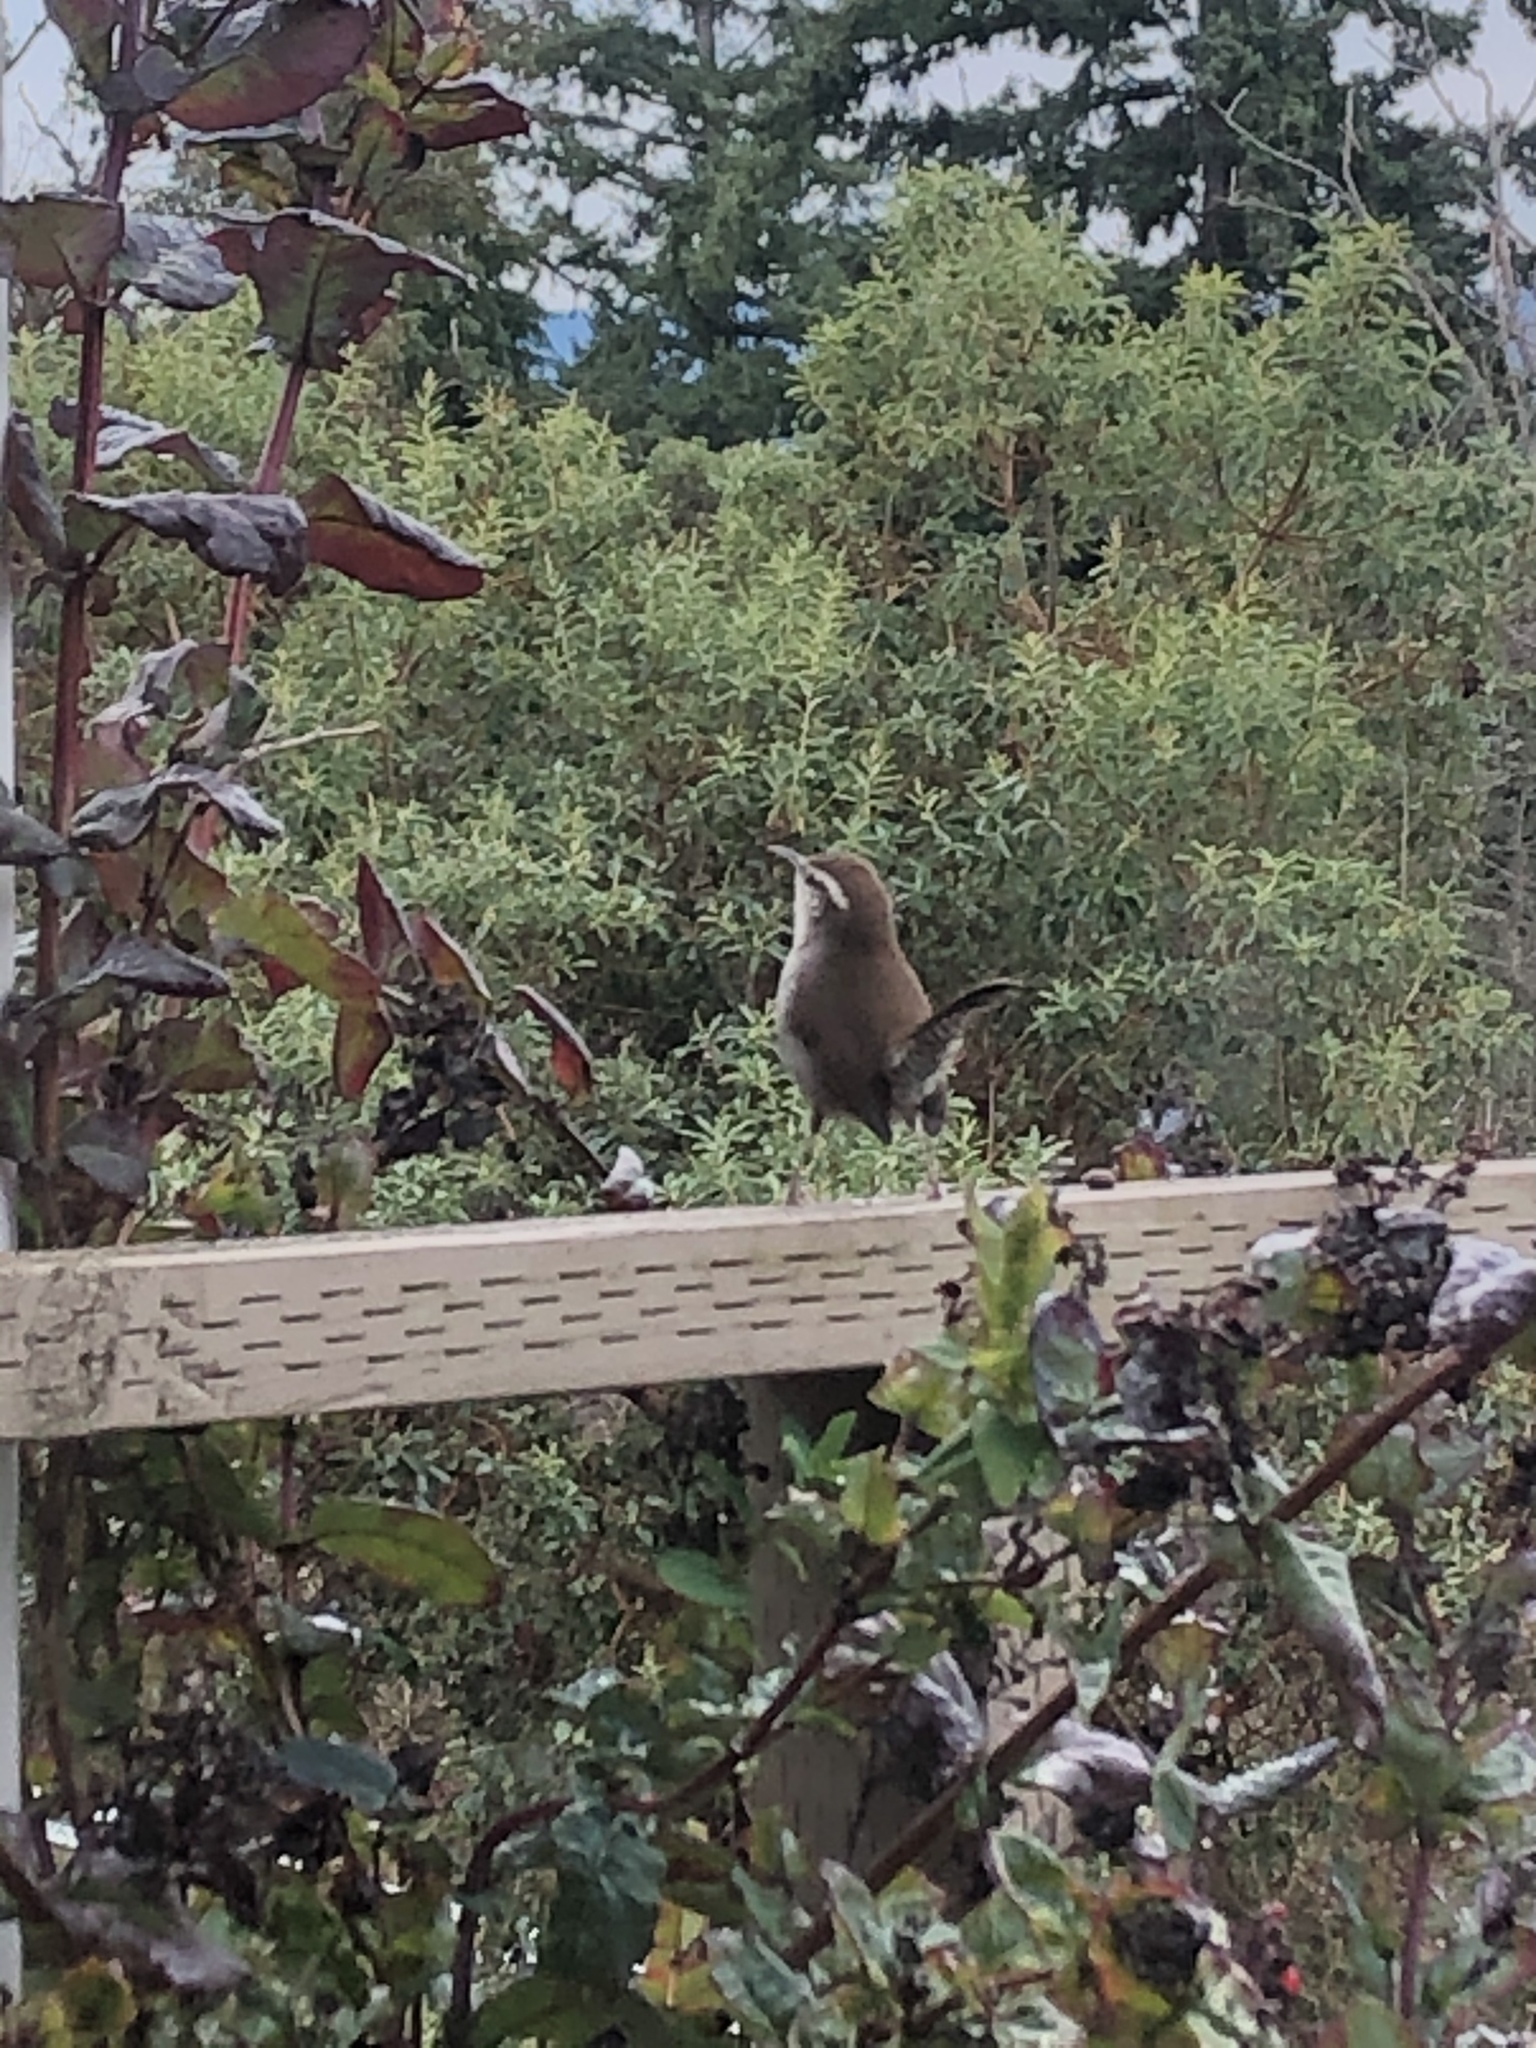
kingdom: Animalia
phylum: Chordata
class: Aves
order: Passeriformes
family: Troglodytidae
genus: Thryomanes
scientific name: Thryomanes bewickii
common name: Bewick's wren
